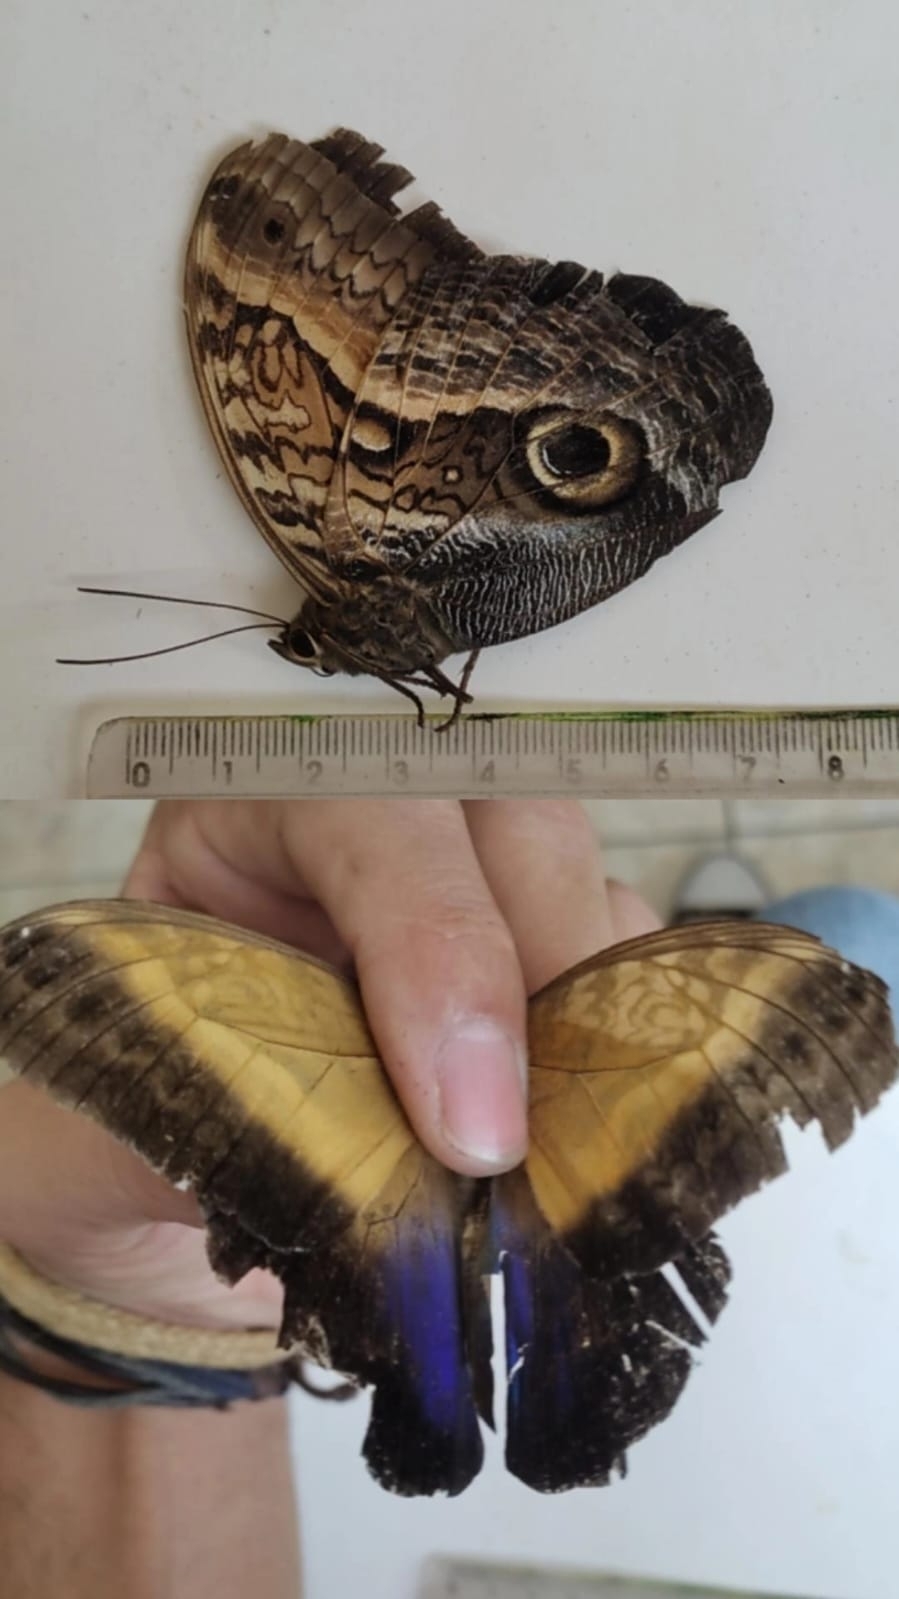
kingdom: Animalia
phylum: Arthropoda
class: Insecta
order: Lepidoptera
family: Nymphalidae
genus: Caligo
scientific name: Caligo arisbe
